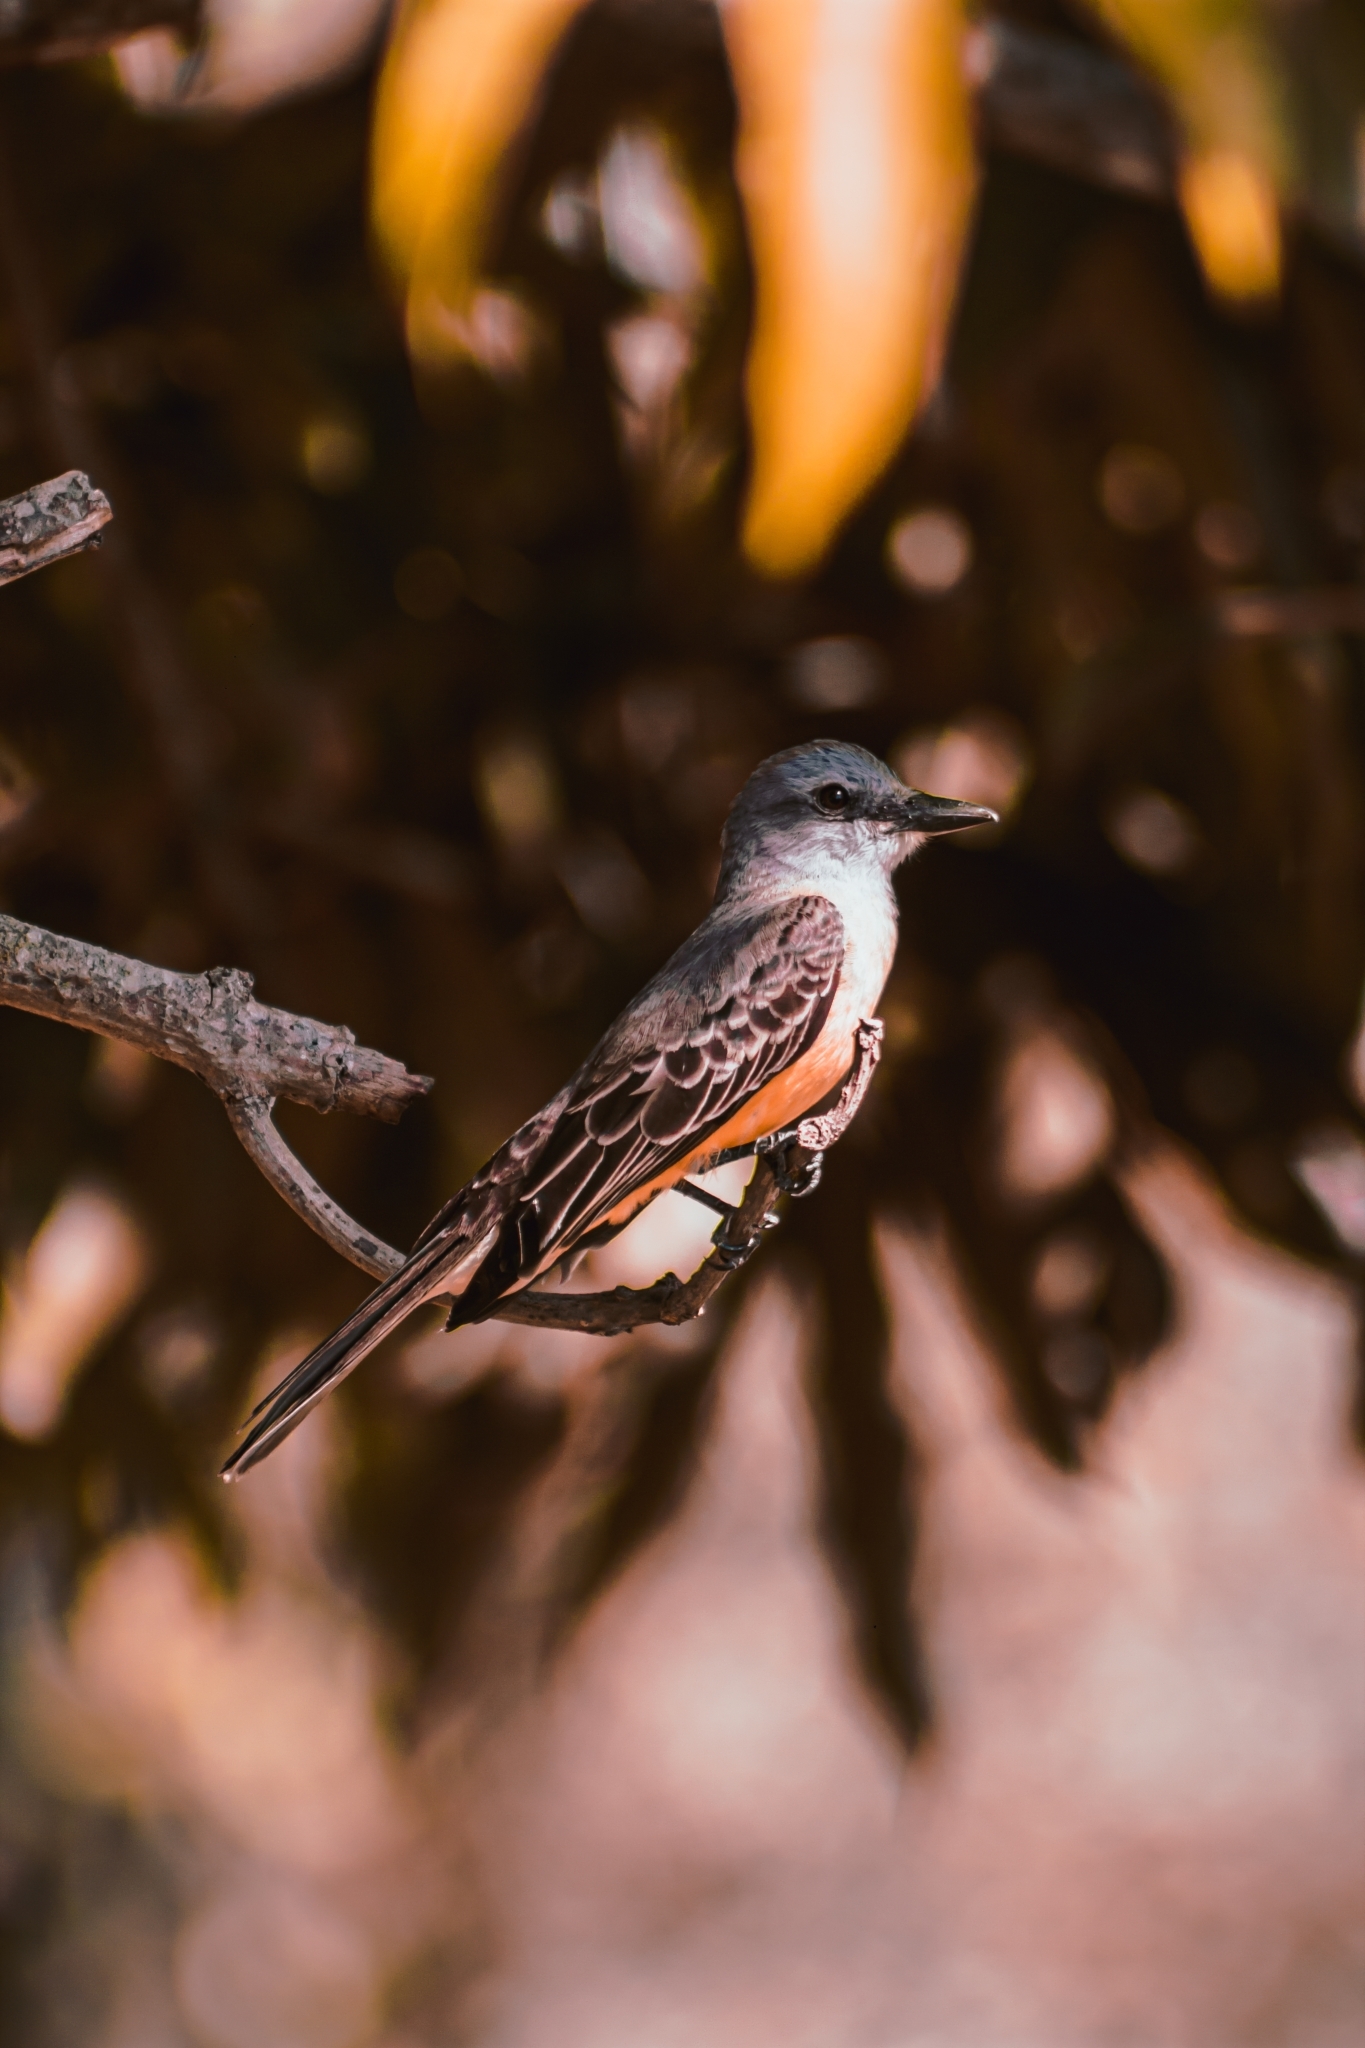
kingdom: Animalia
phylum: Chordata
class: Aves
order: Passeriformes
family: Tyrannidae
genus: Tyrannus
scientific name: Tyrannus melancholicus
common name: Tropical kingbird
